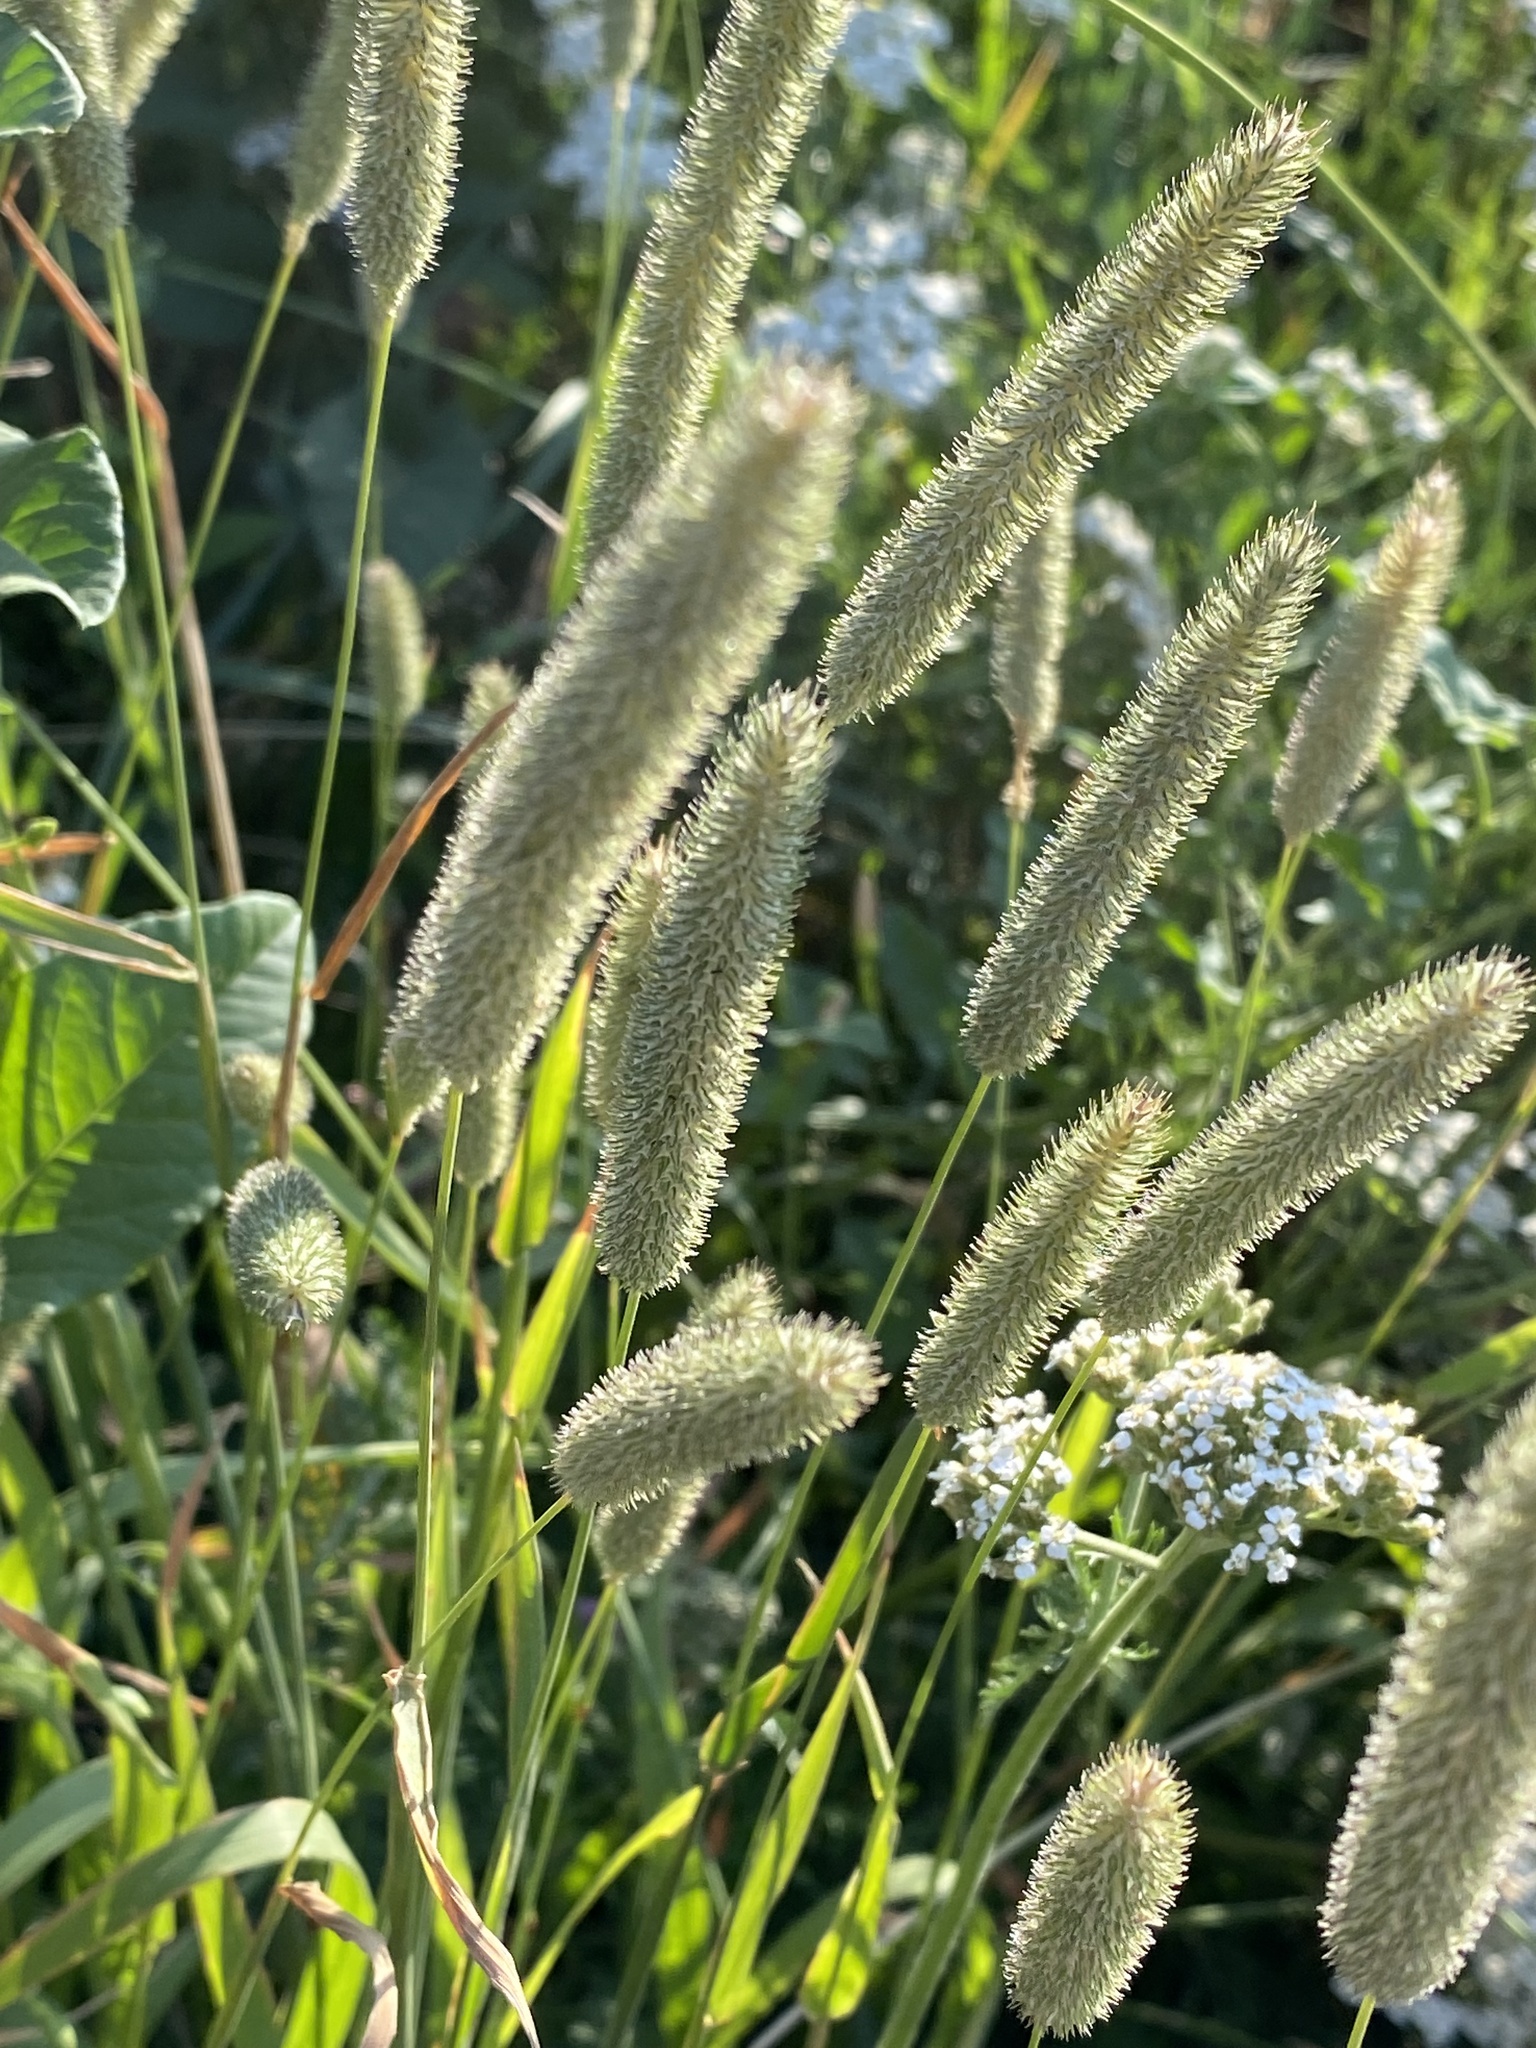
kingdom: Plantae
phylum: Tracheophyta
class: Liliopsida
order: Poales
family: Poaceae
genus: Phleum
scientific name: Phleum pratense
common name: Timothy grass
